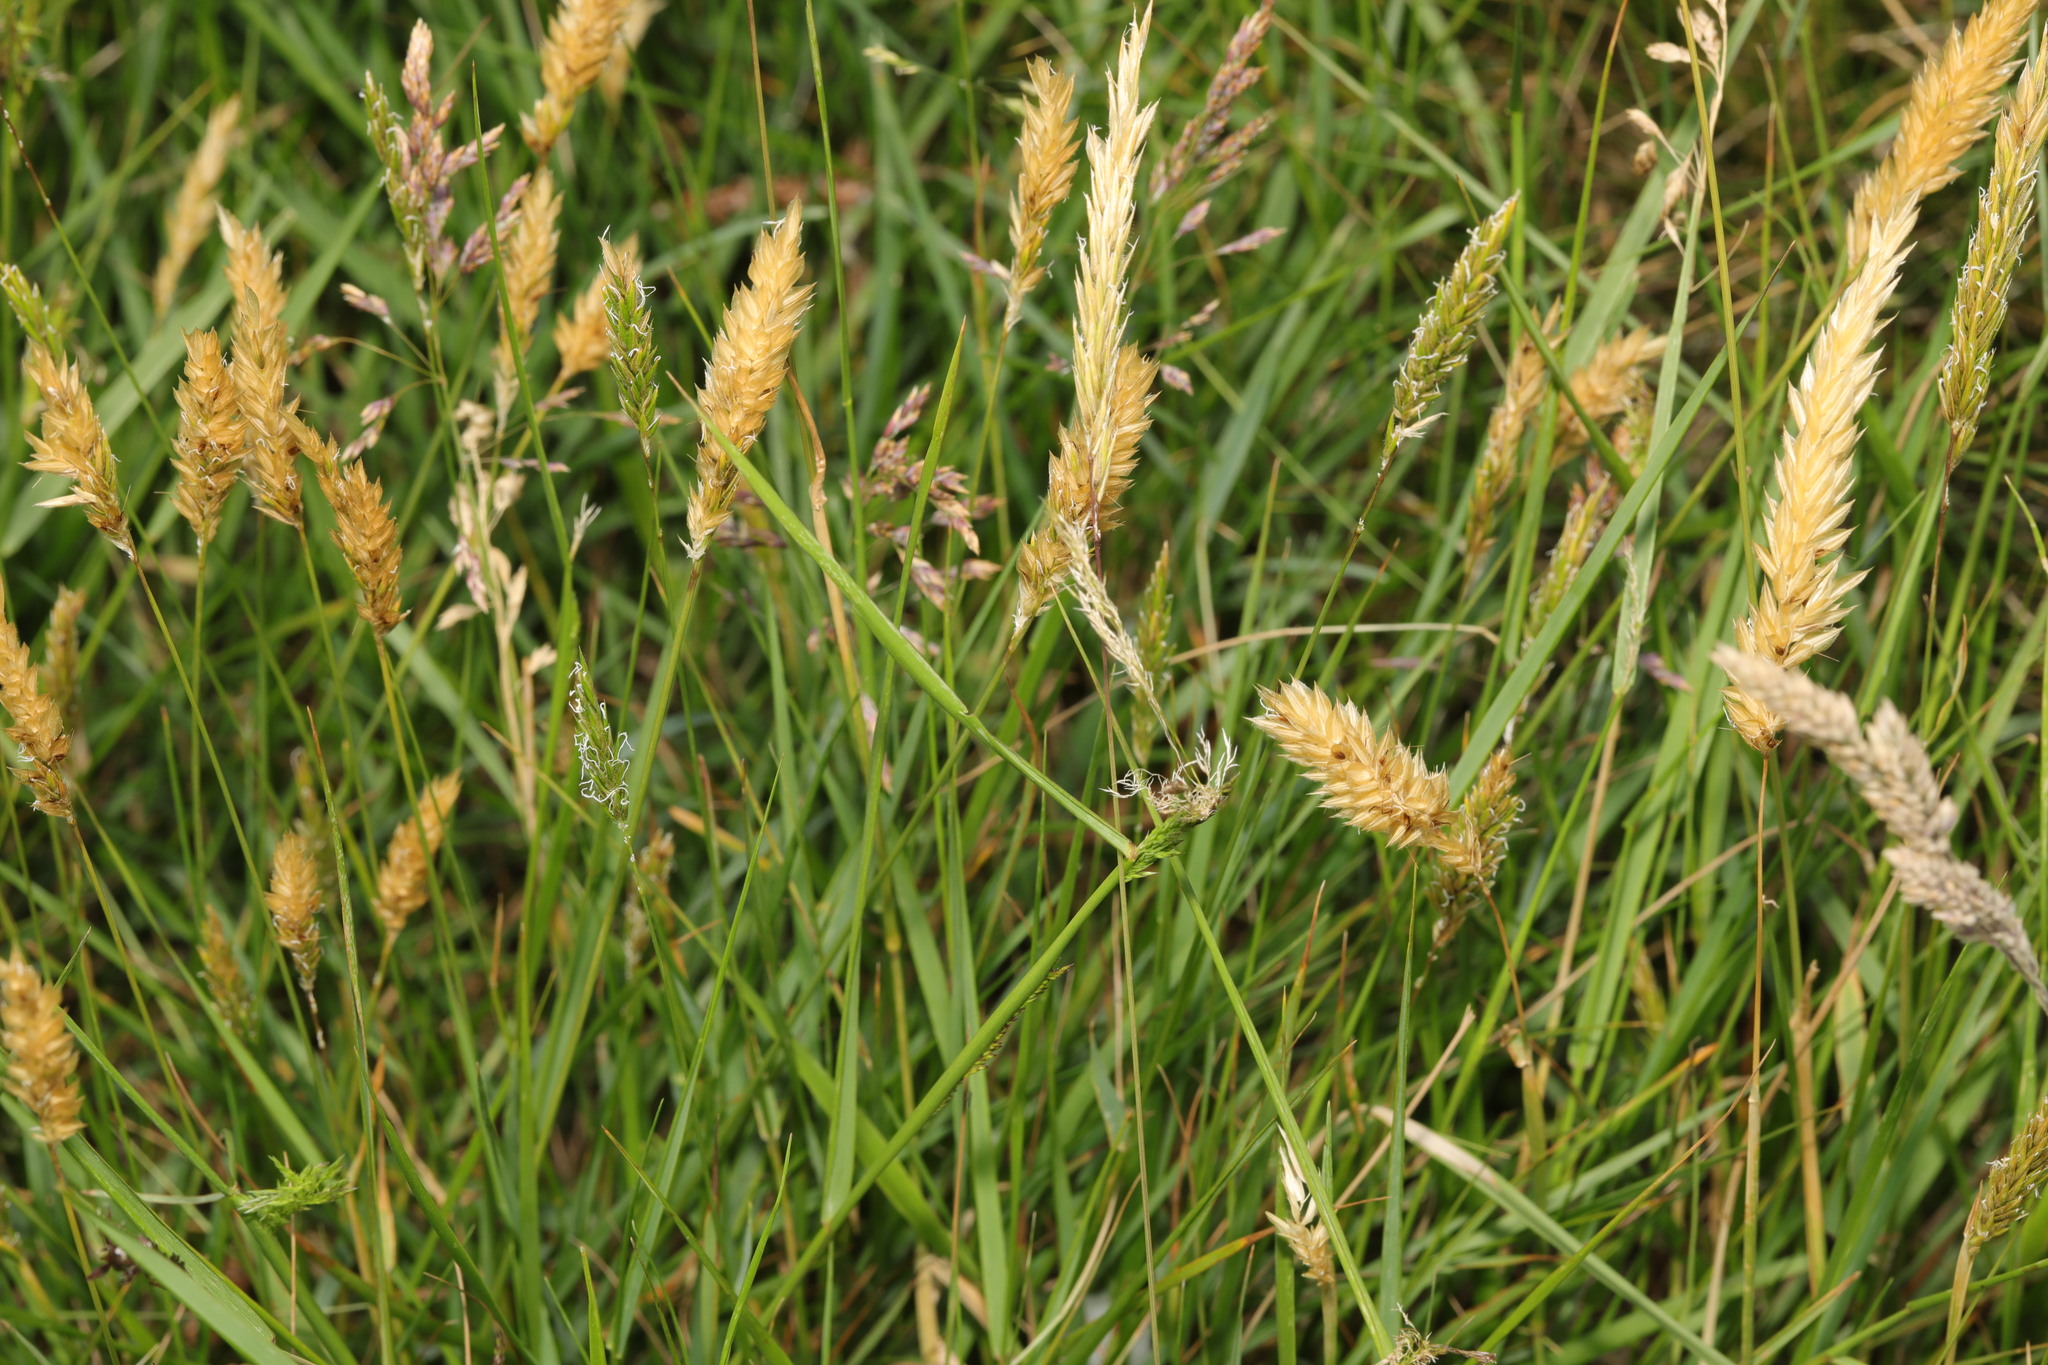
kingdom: Plantae
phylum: Tracheophyta
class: Liliopsida
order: Poales
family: Poaceae
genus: Anthoxanthum
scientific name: Anthoxanthum odoratum
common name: Sweet vernalgrass
